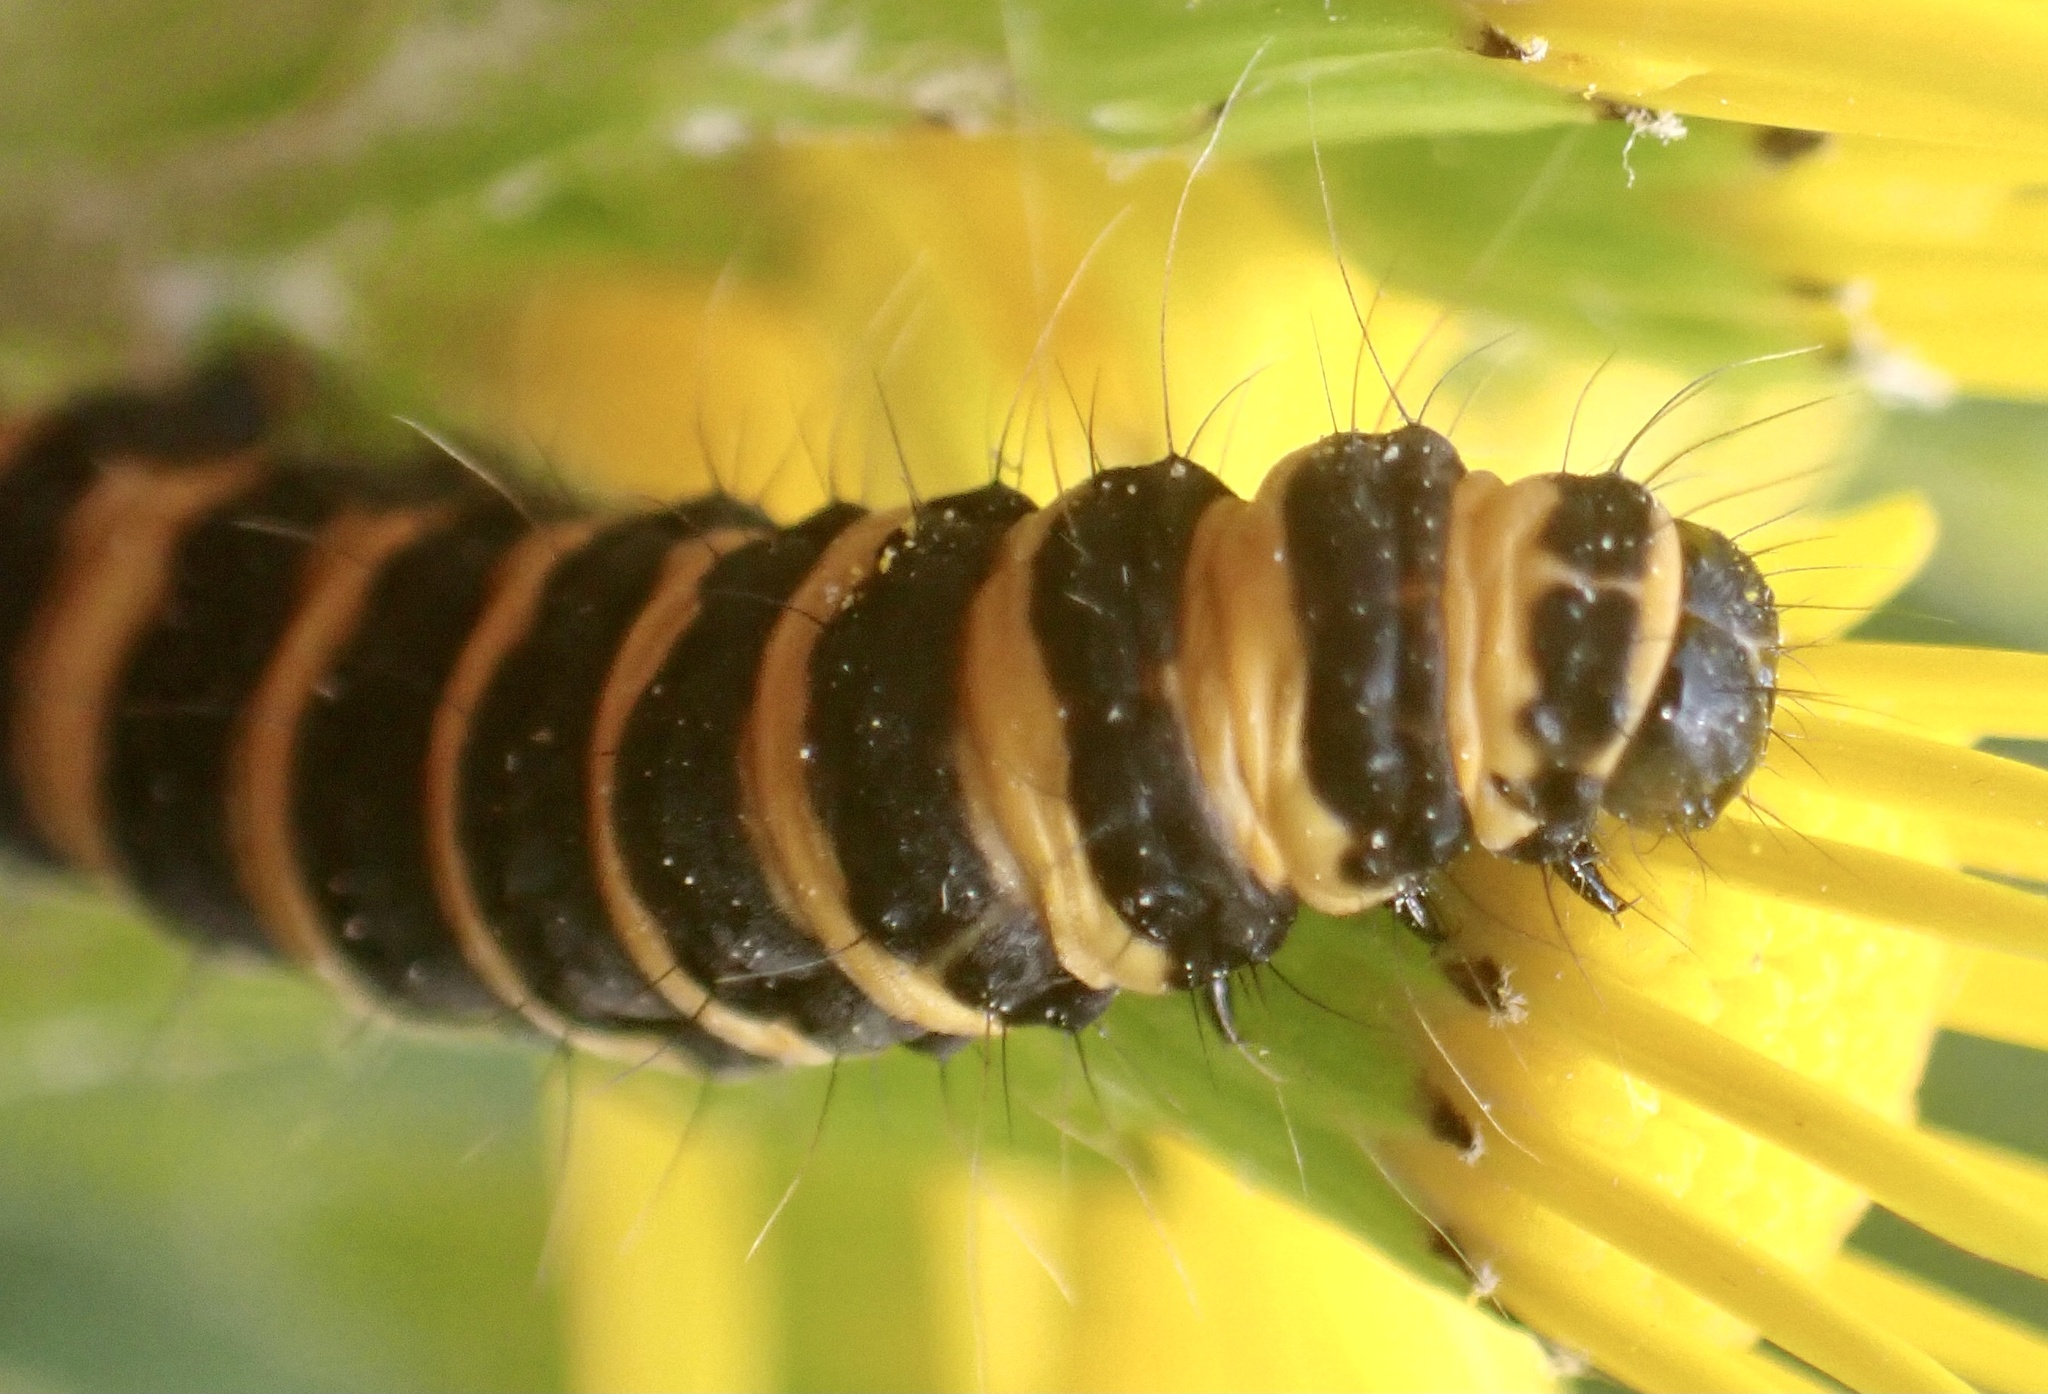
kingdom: Animalia
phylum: Arthropoda
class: Insecta
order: Lepidoptera
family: Erebidae
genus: Tyria
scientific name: Tyria jacobaeae
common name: Cinnabar
